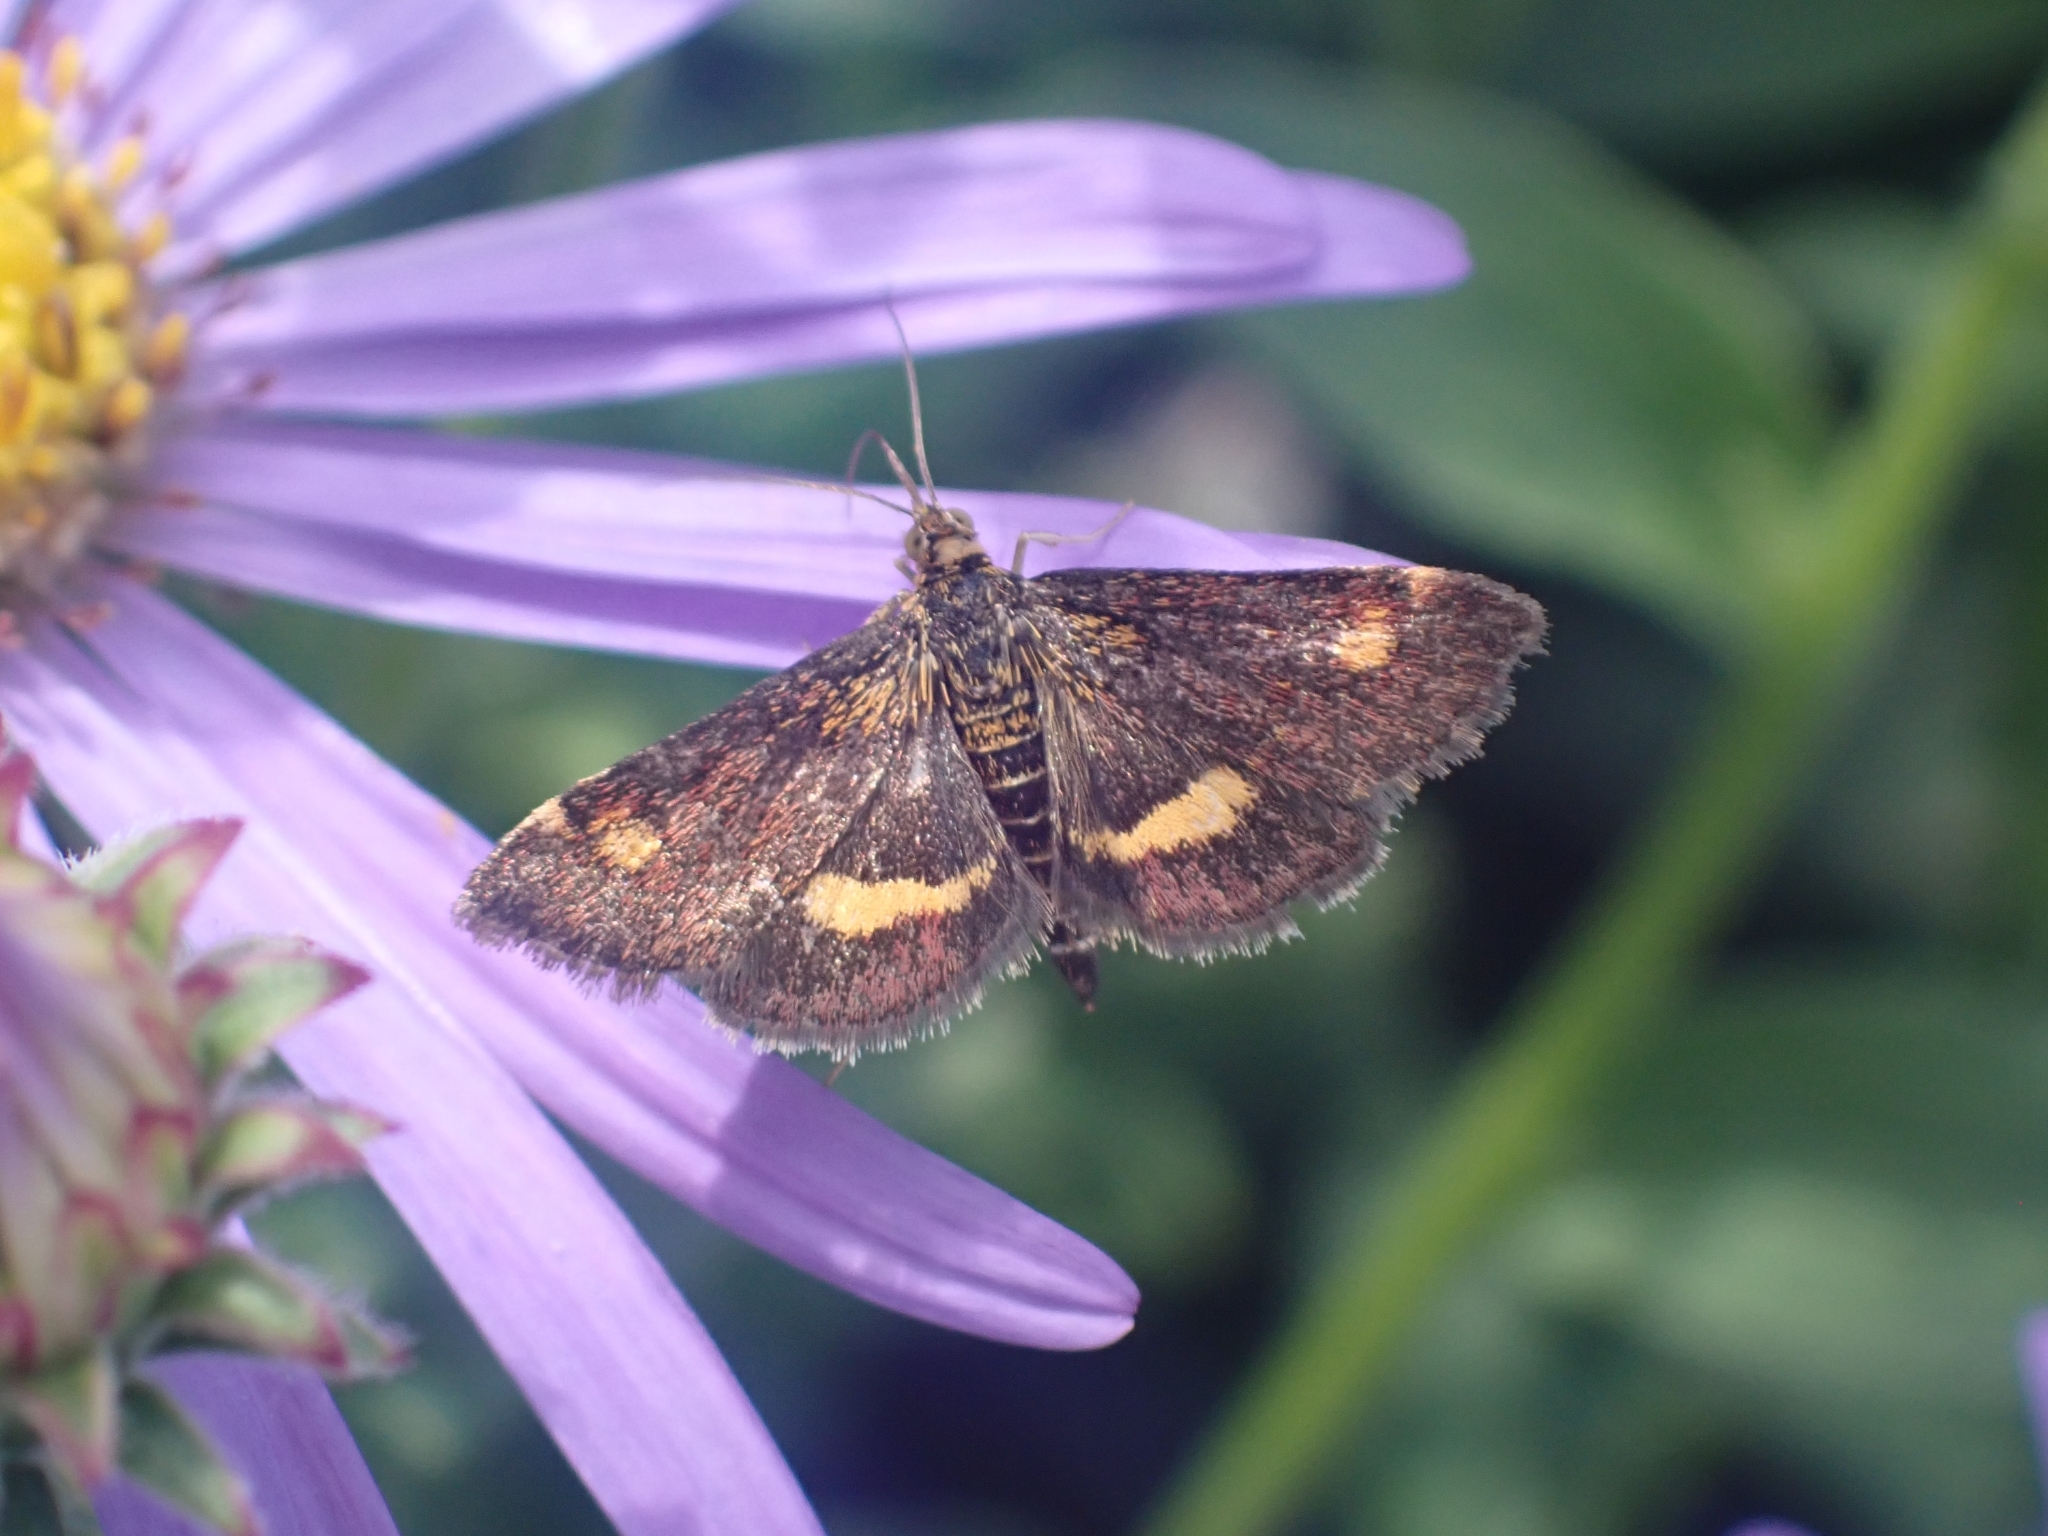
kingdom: Animalia
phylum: Arthropoda
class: Insecta
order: Lepidoptera
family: Crambidae
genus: Pyrausta
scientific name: Pyrausta aurata
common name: Small purple & gold
